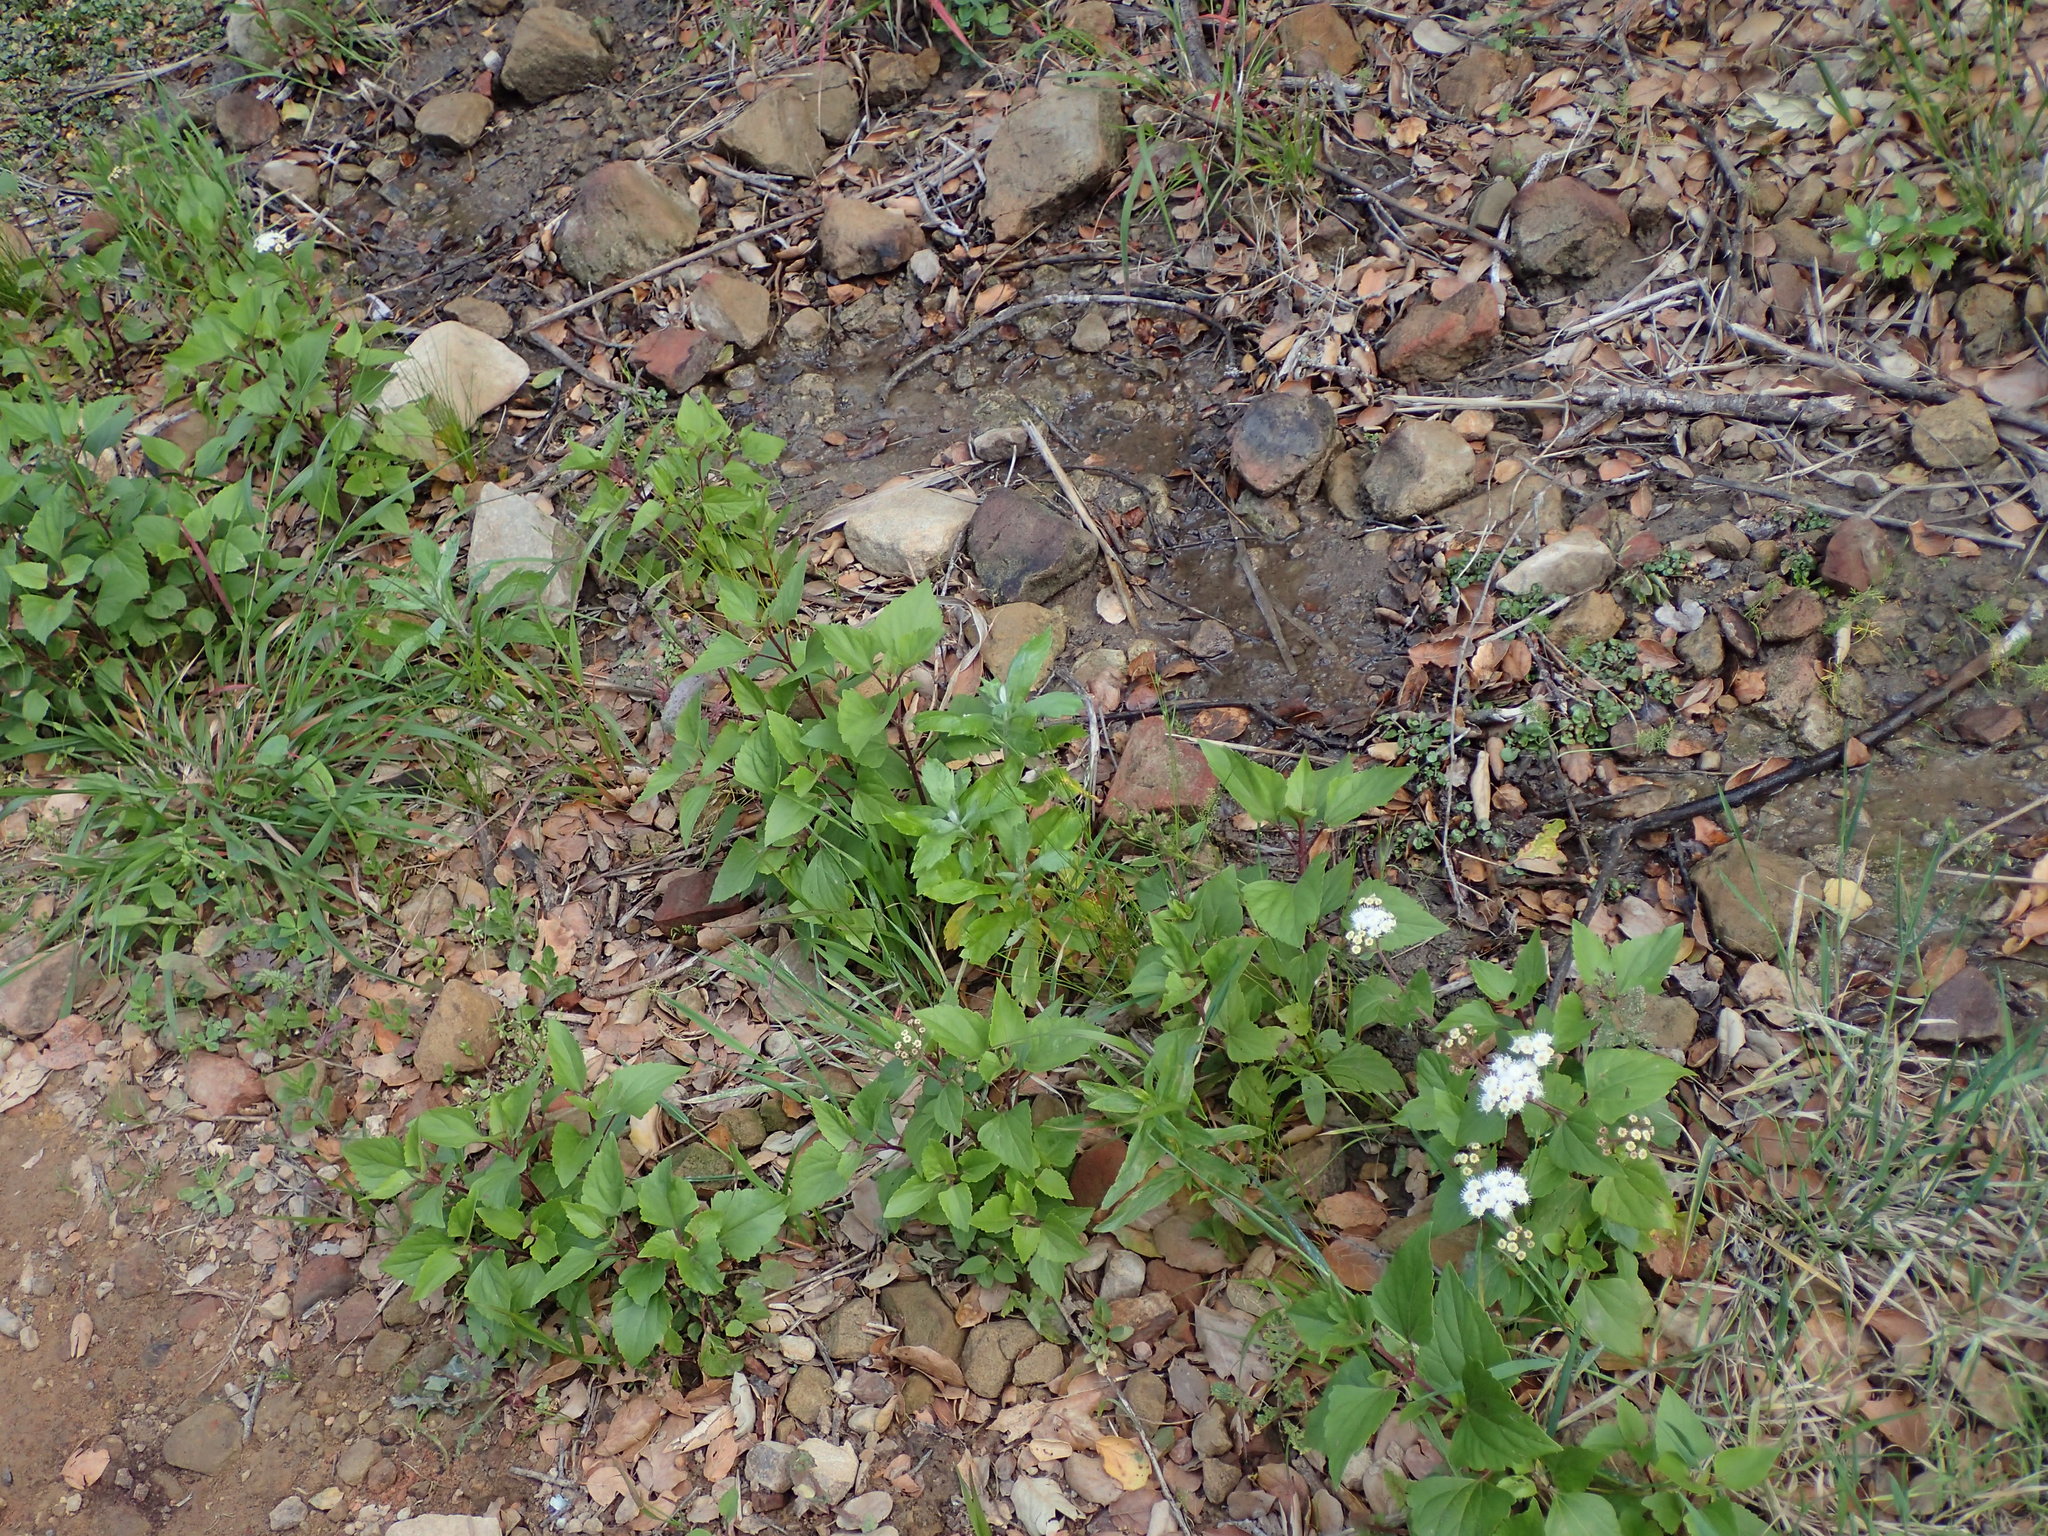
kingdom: Plantae
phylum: Tracheophyta
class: Magnoliopsida
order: Asterales
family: Asteraceae
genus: Ageratina
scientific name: Ageratina adenophora
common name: Sticky snakeroot
